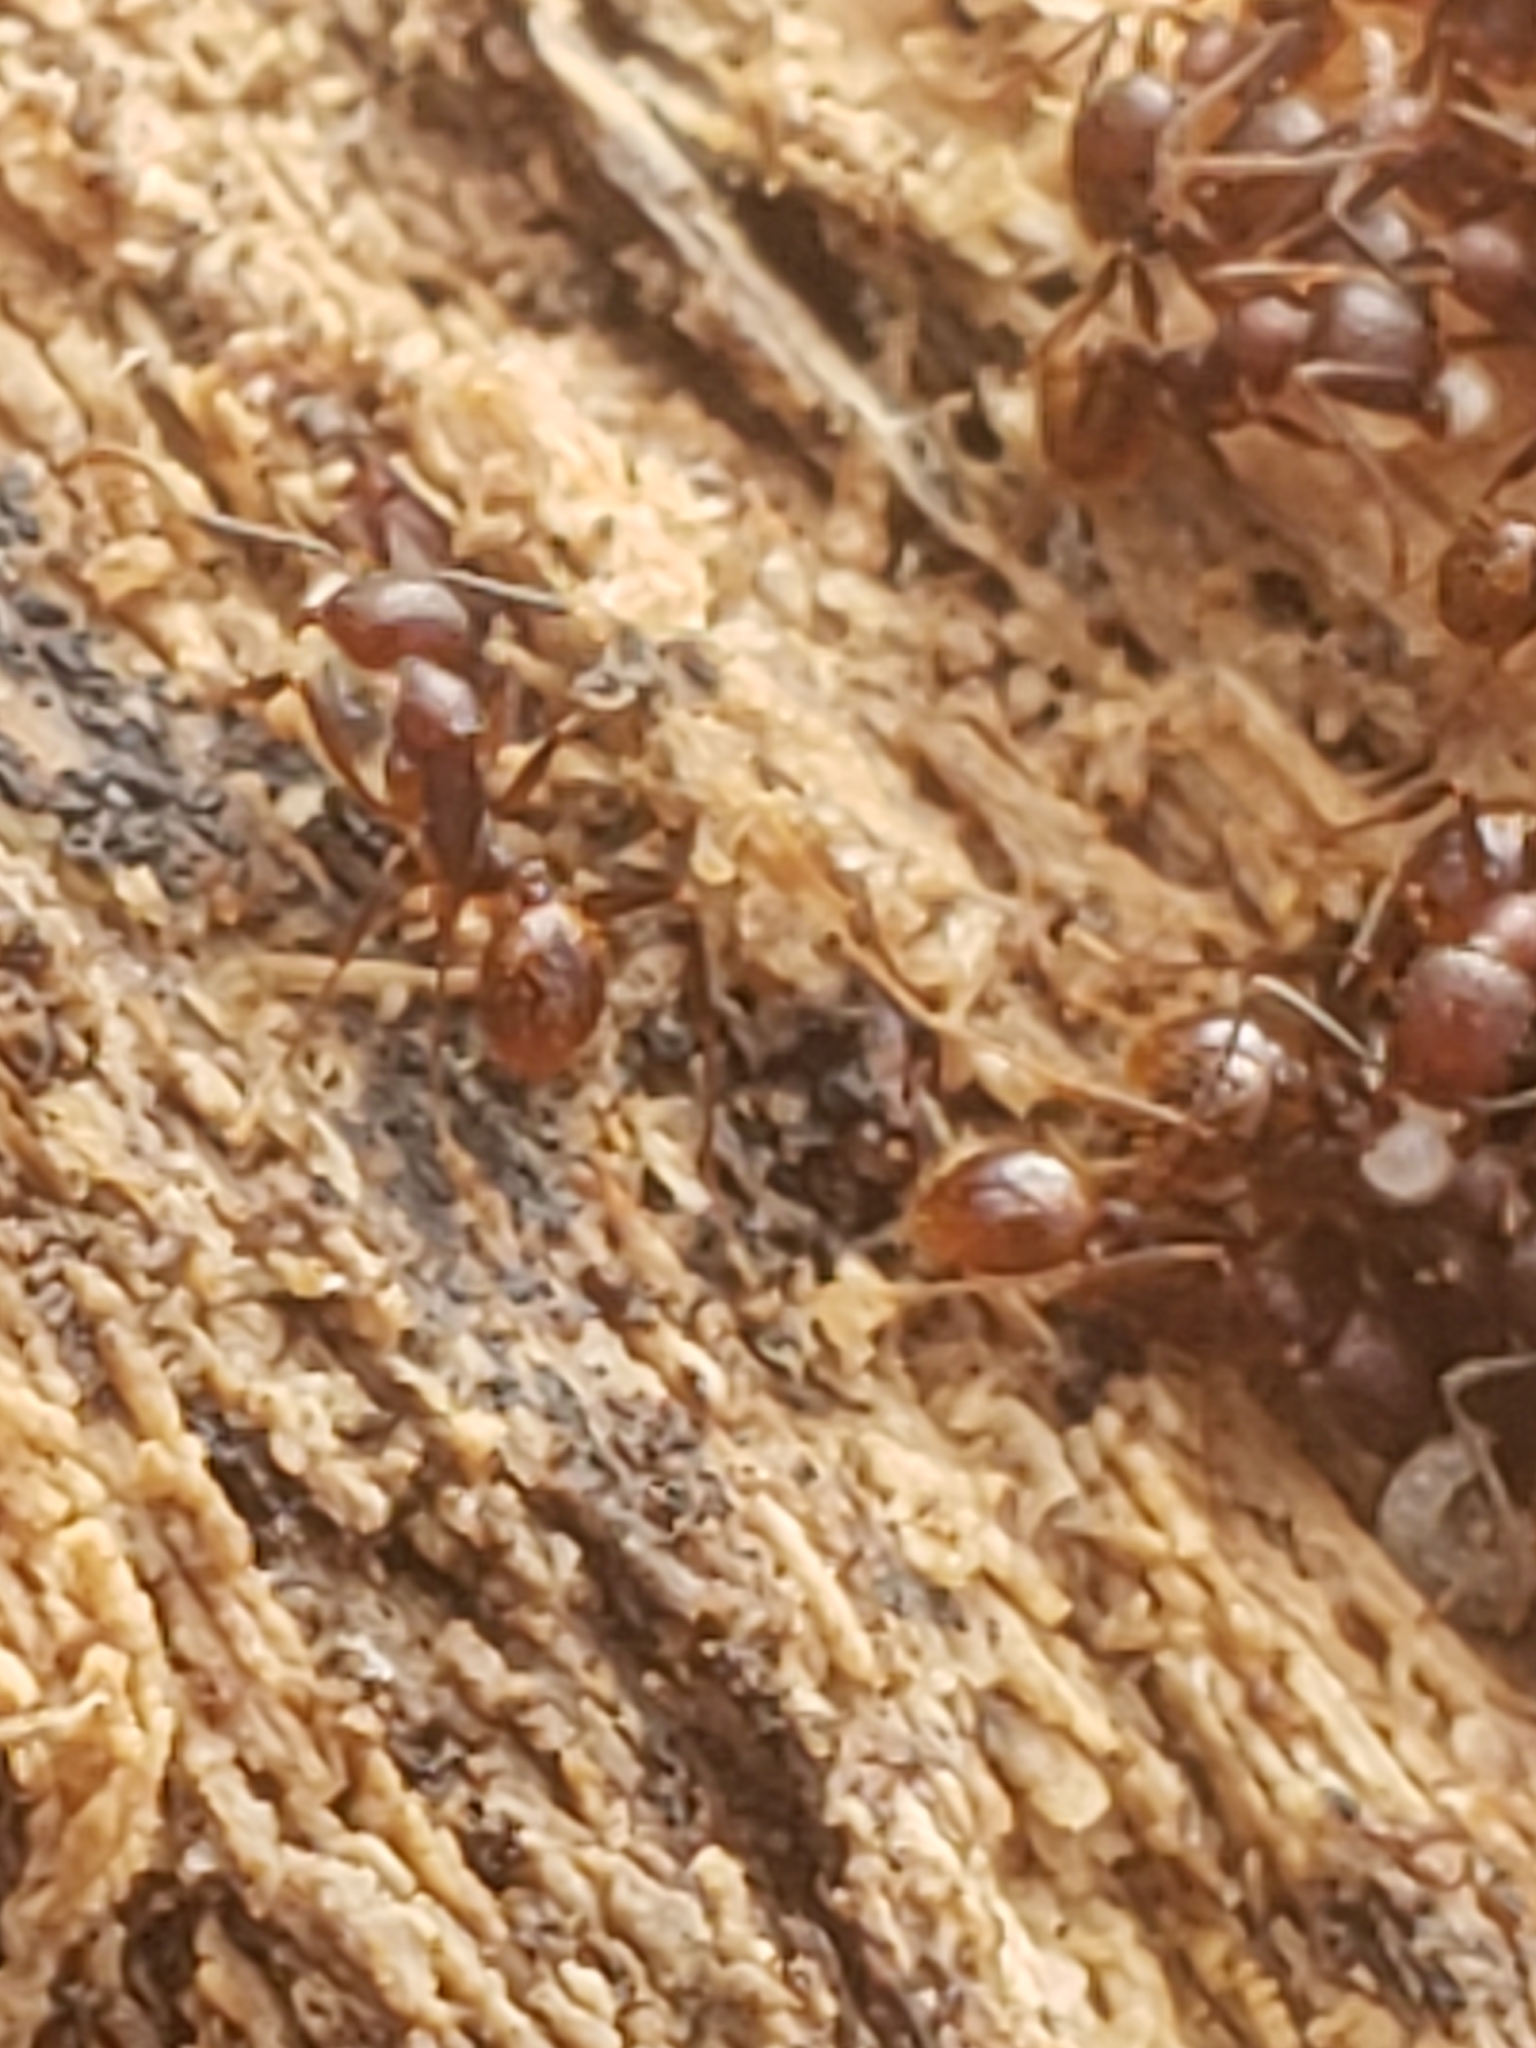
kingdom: Animalia
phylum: Arthropoda
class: Insecta
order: Hymenoptera
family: Formicidae
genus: Aphaenogaster
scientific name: Aphaenogaster fulva
